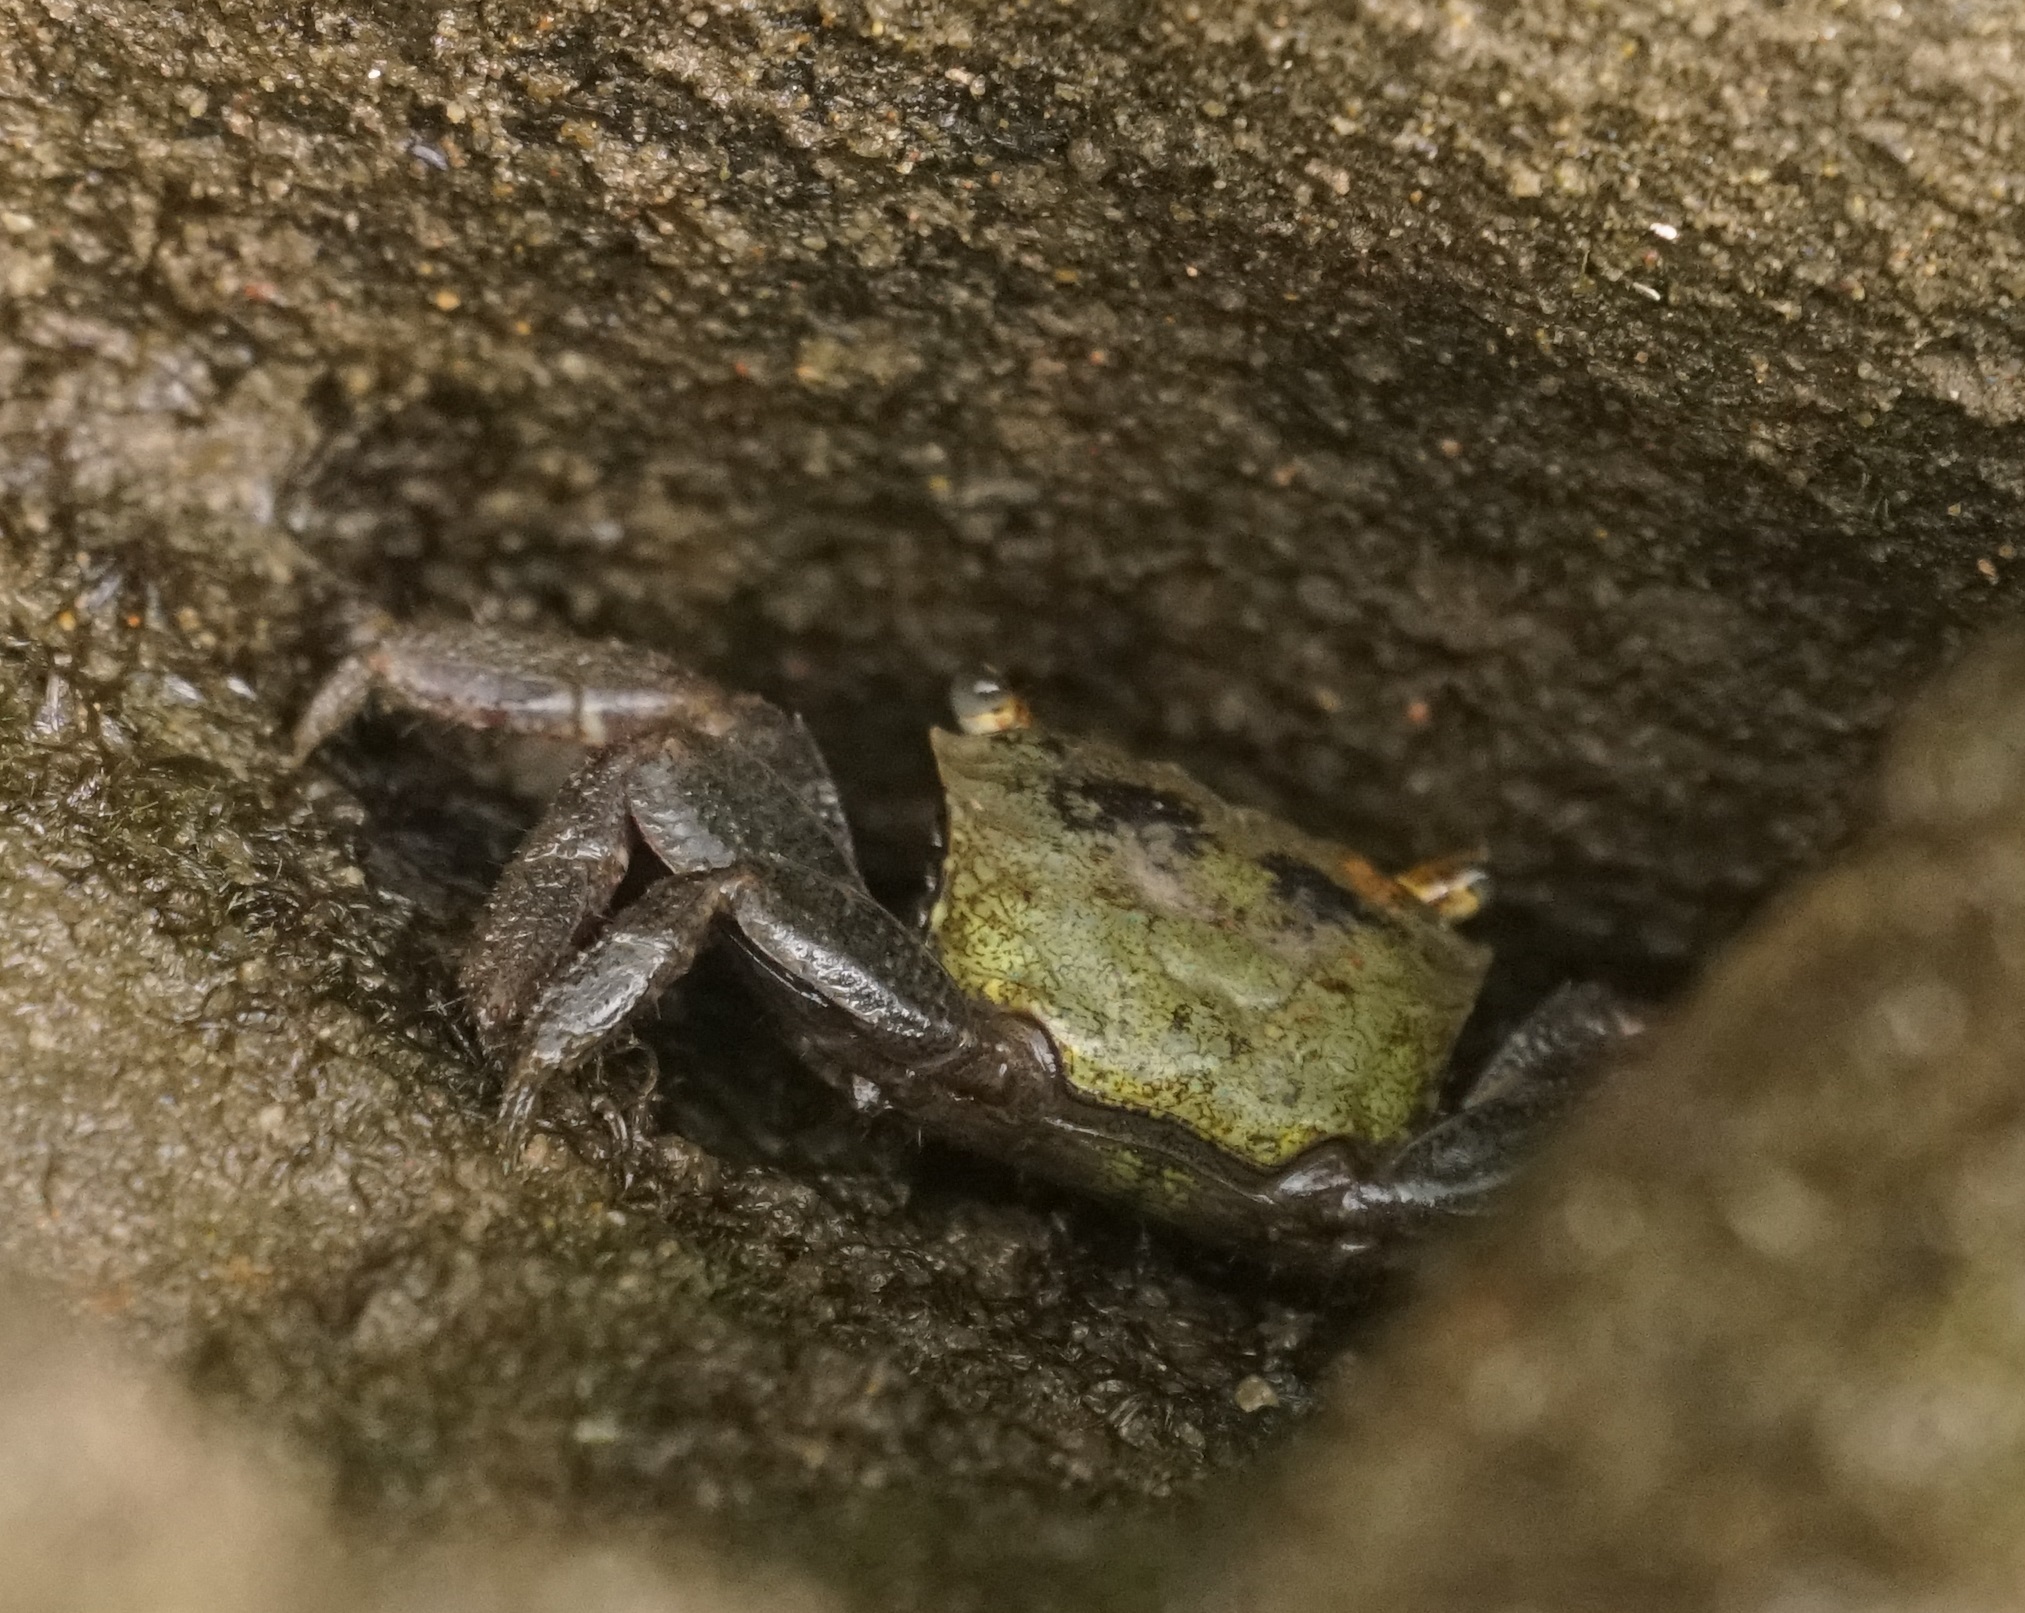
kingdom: Animalia
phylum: Arthropoda
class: Malacostraca
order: Decapoda
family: Sesarmidae
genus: Parasesarma
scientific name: Parasesarma erythodactylum
